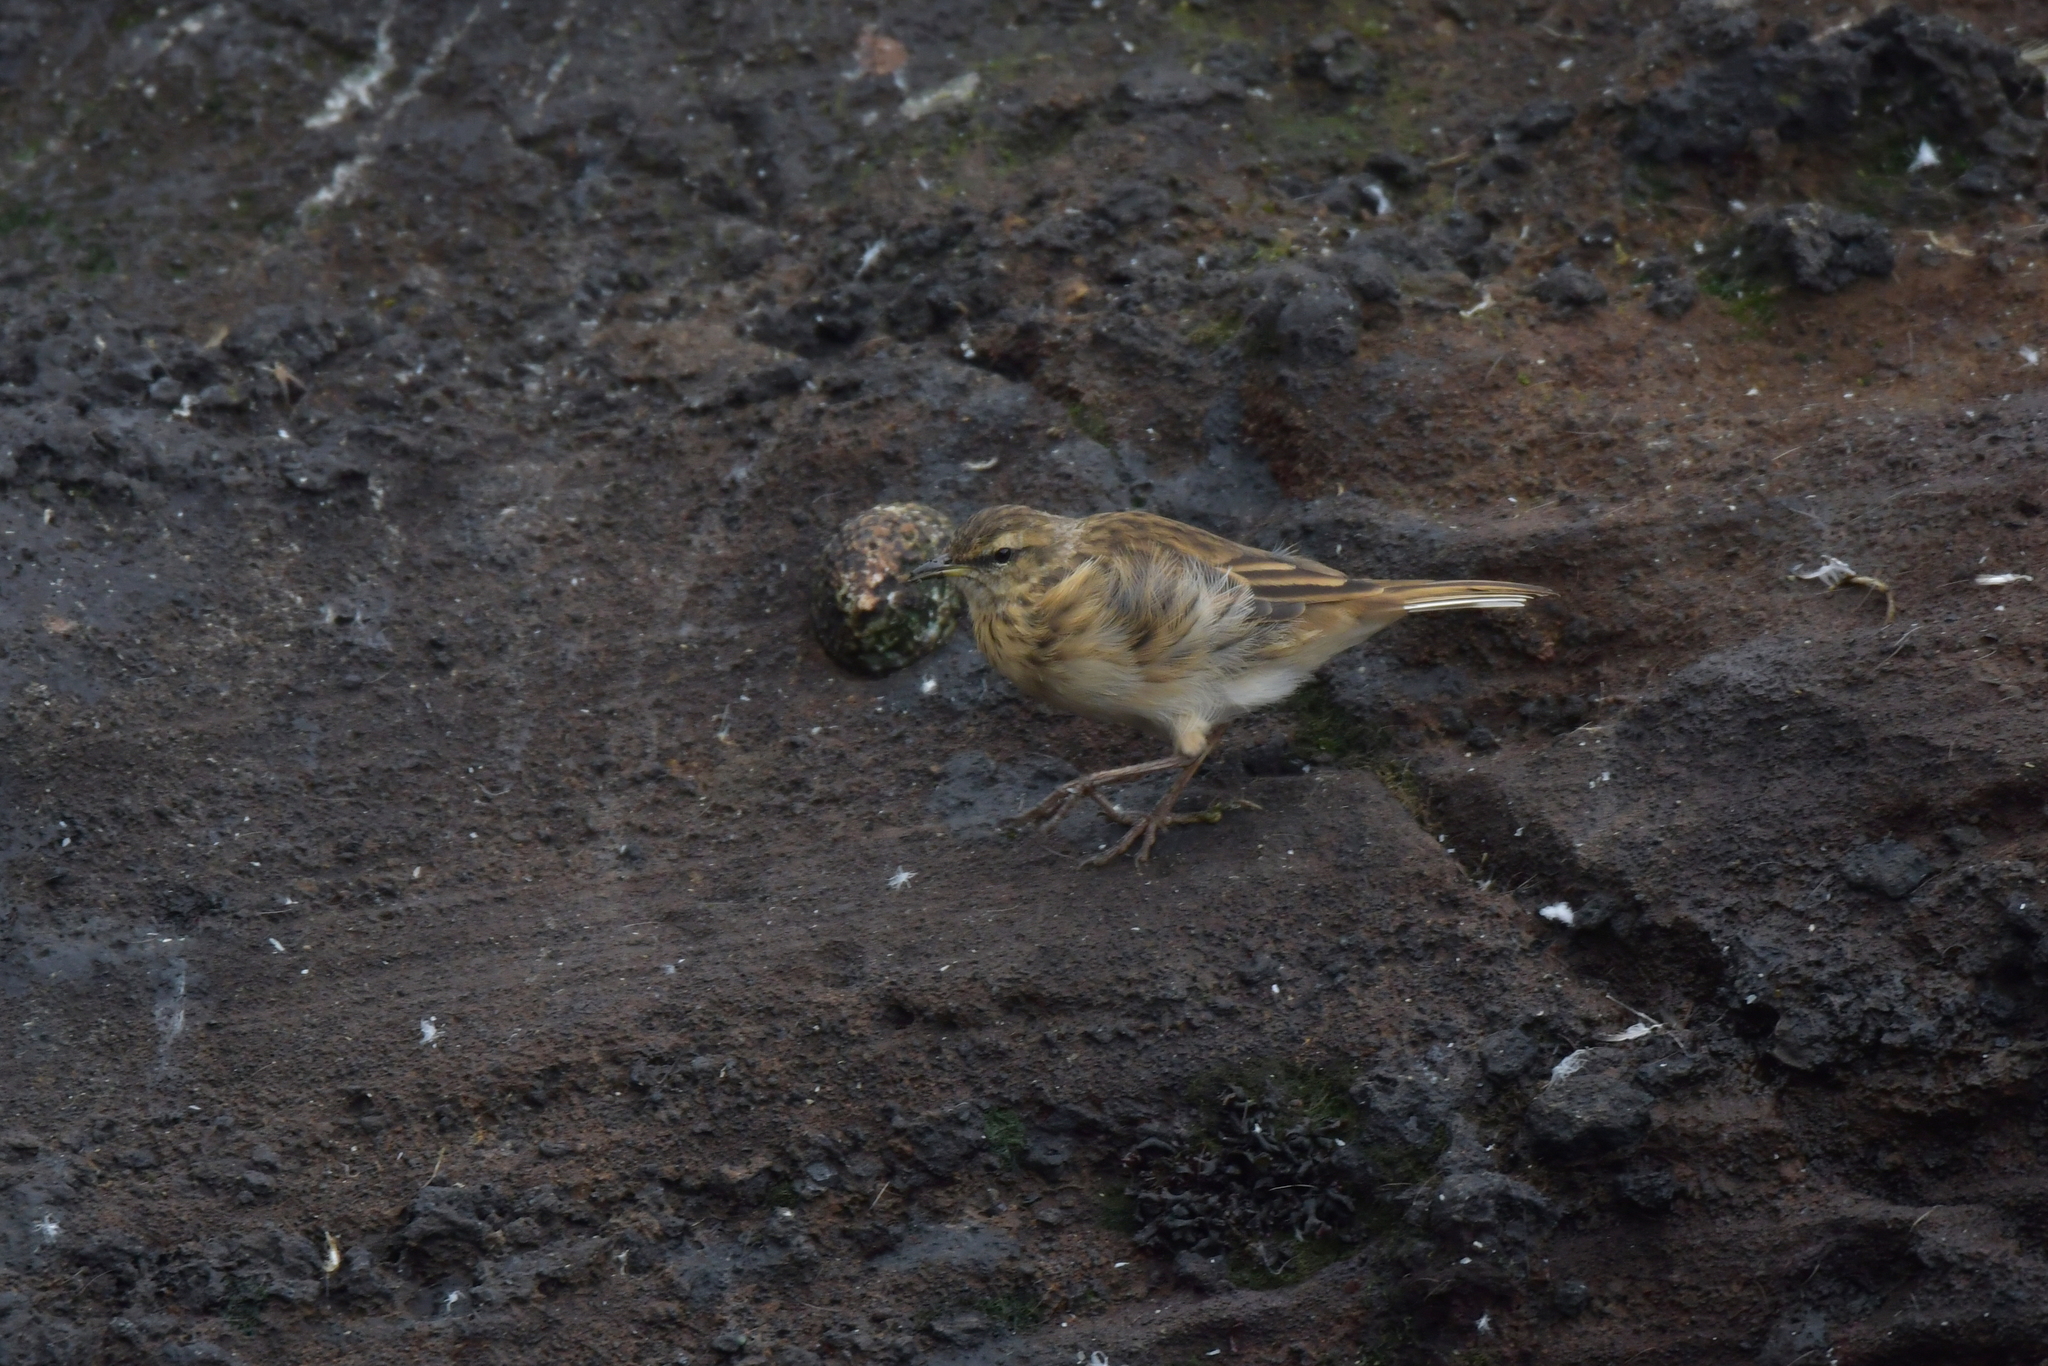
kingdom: Animalia
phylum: Chordata
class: Aves
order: Passeriformes
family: Motacillidae
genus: Anthus
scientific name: Anthus novaeseelandiae
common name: New zealand pipit
